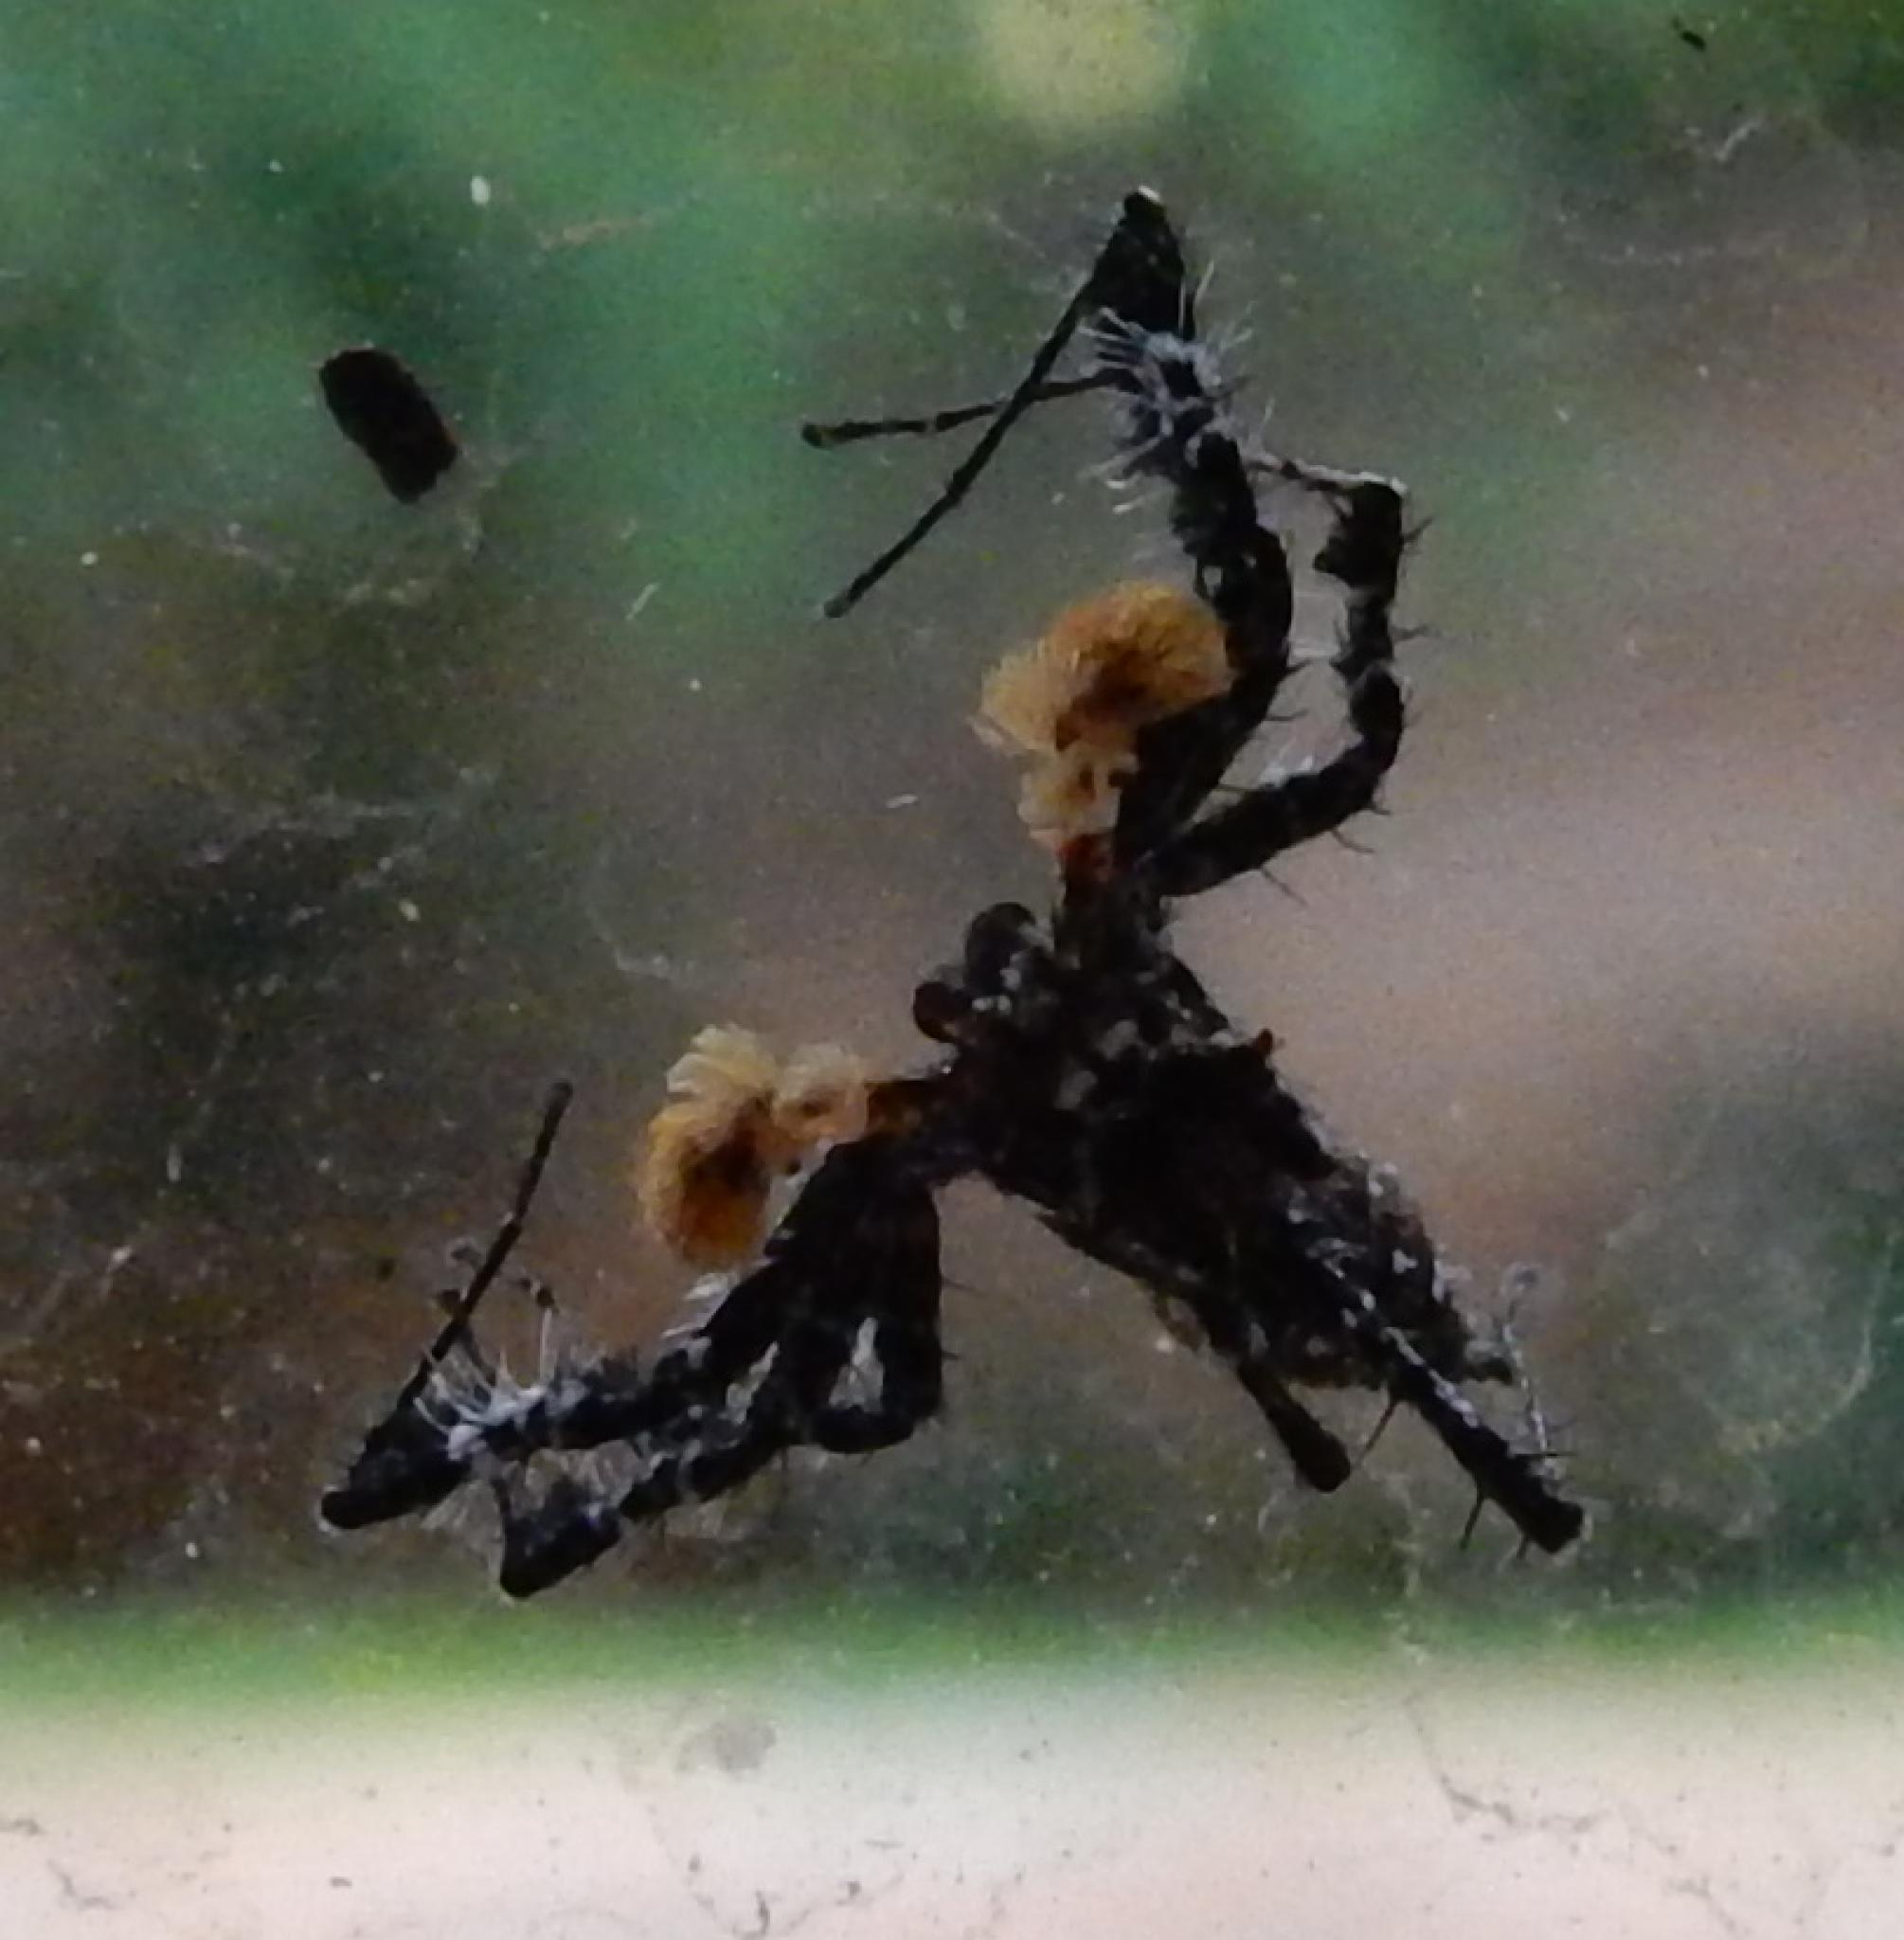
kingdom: Animalia
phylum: Arthropoda
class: Arachnida
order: Araneae
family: Salticidae
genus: Portia
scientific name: Portia schultzi
